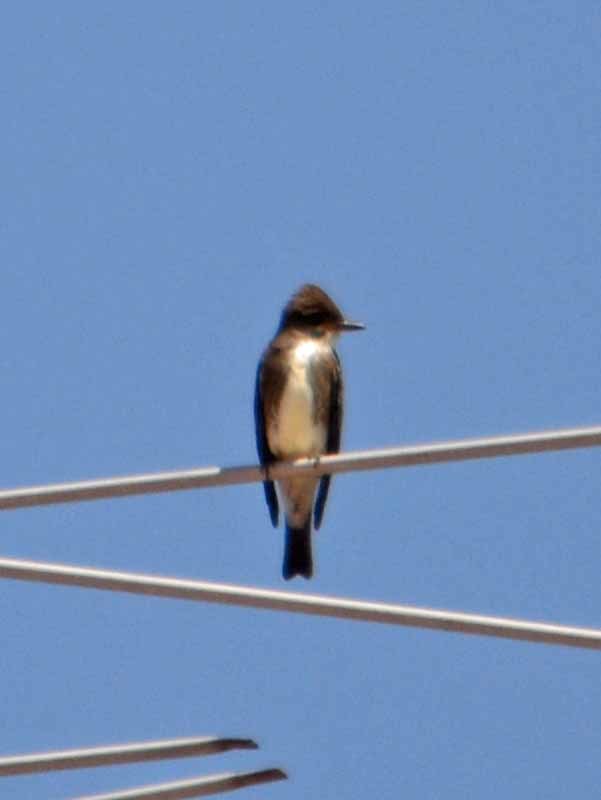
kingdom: Animalia
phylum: Chordata
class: Aves
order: Passeriformes
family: Tyrannidae
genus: Contopus
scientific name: Contopus cooperi
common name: Olive-sided flycatcher
